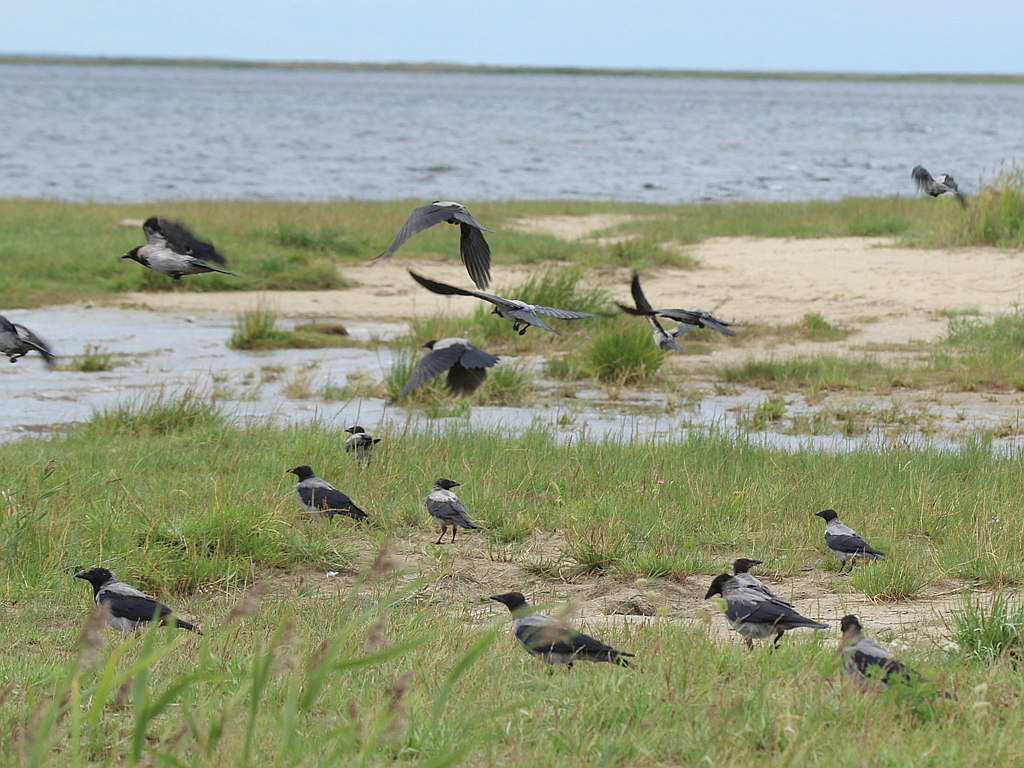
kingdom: Animalia
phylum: Chordata
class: Aves
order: Passeriformes
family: Corvidae
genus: Corvus
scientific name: Corvus cornix
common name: Hooded crow
